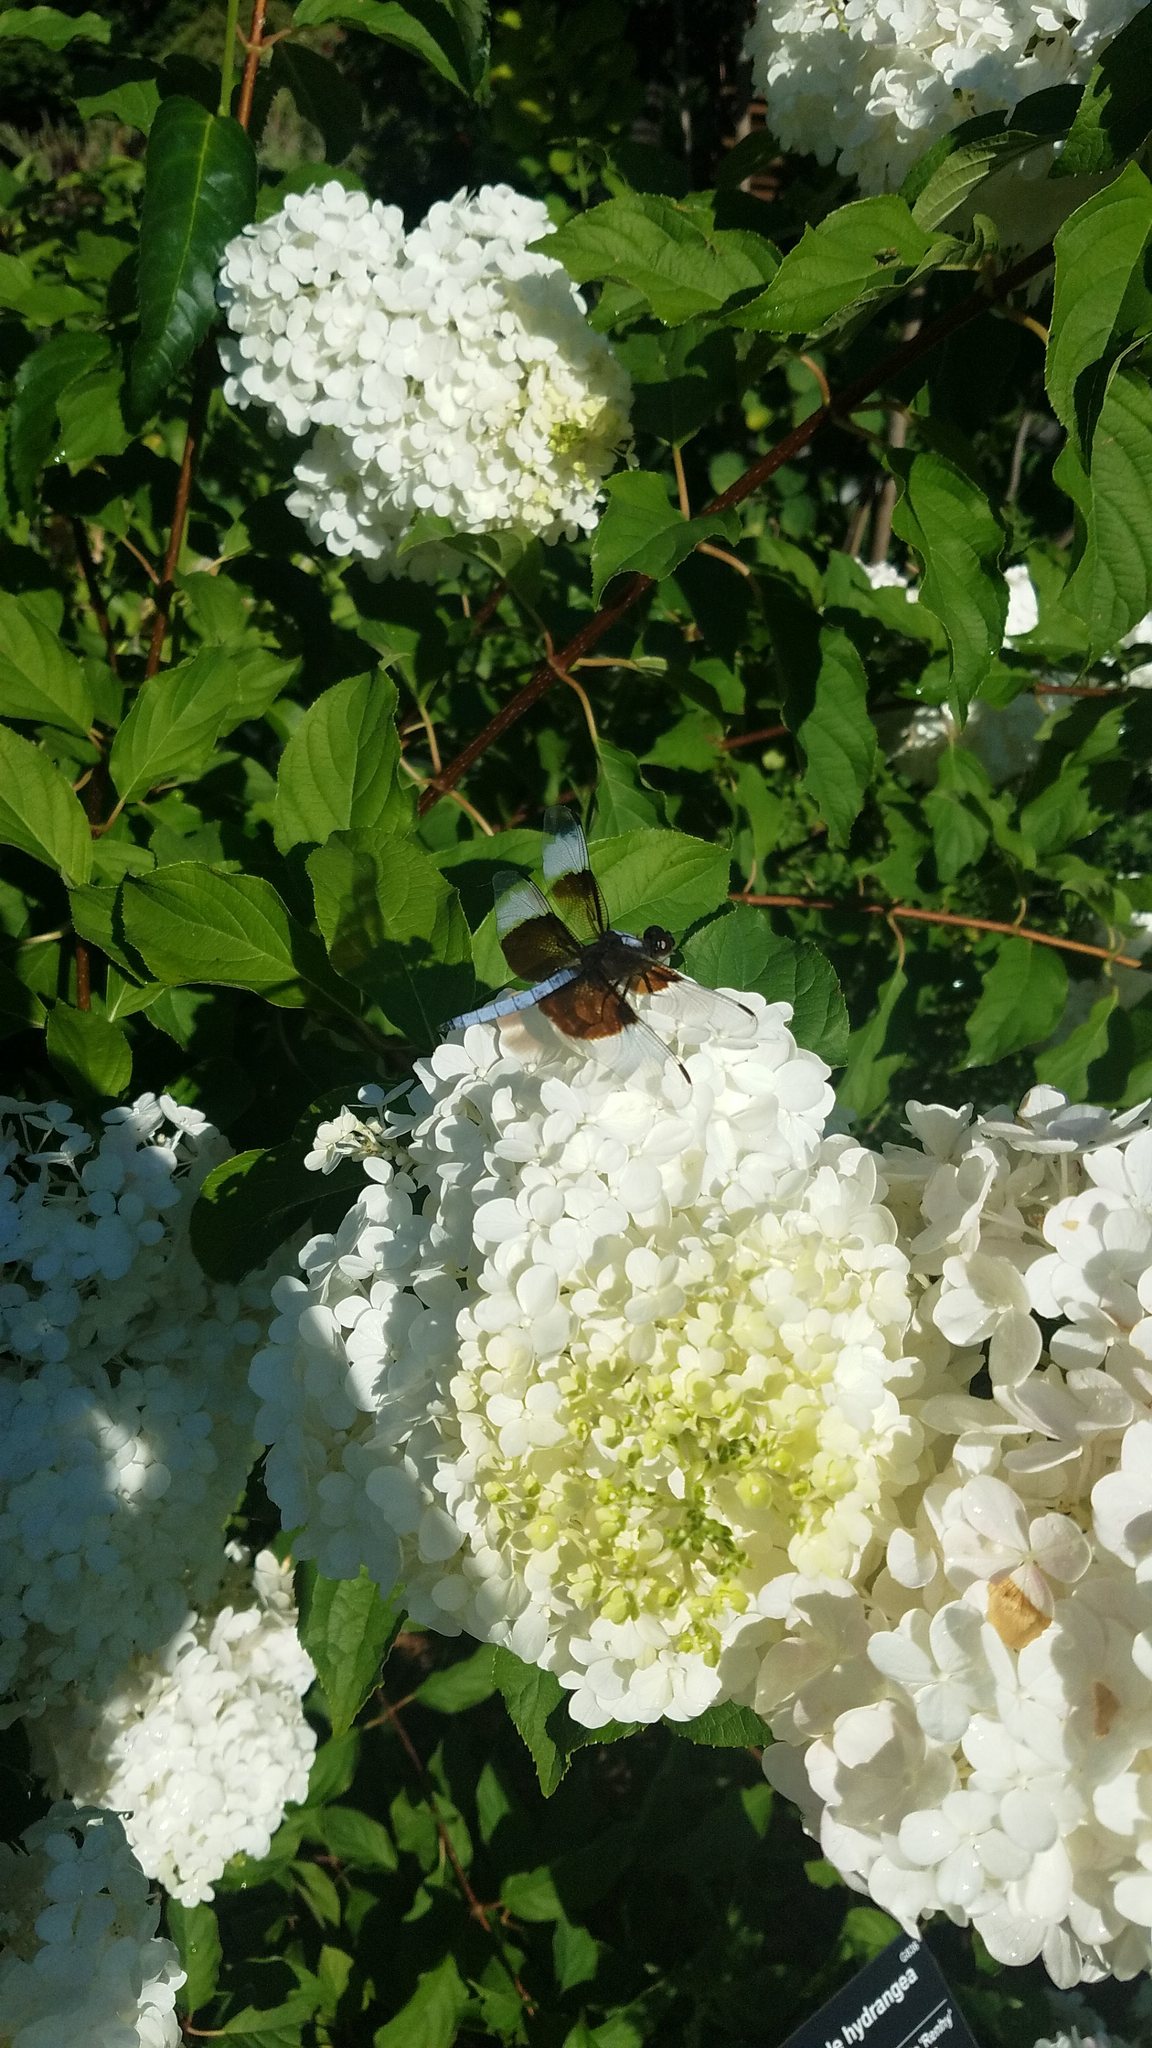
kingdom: Animalia
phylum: Arthropoda
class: Insecta
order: Odonata
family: Libellulidae
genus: Libellula
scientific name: Libellula luctuosa
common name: Widow skimmer
